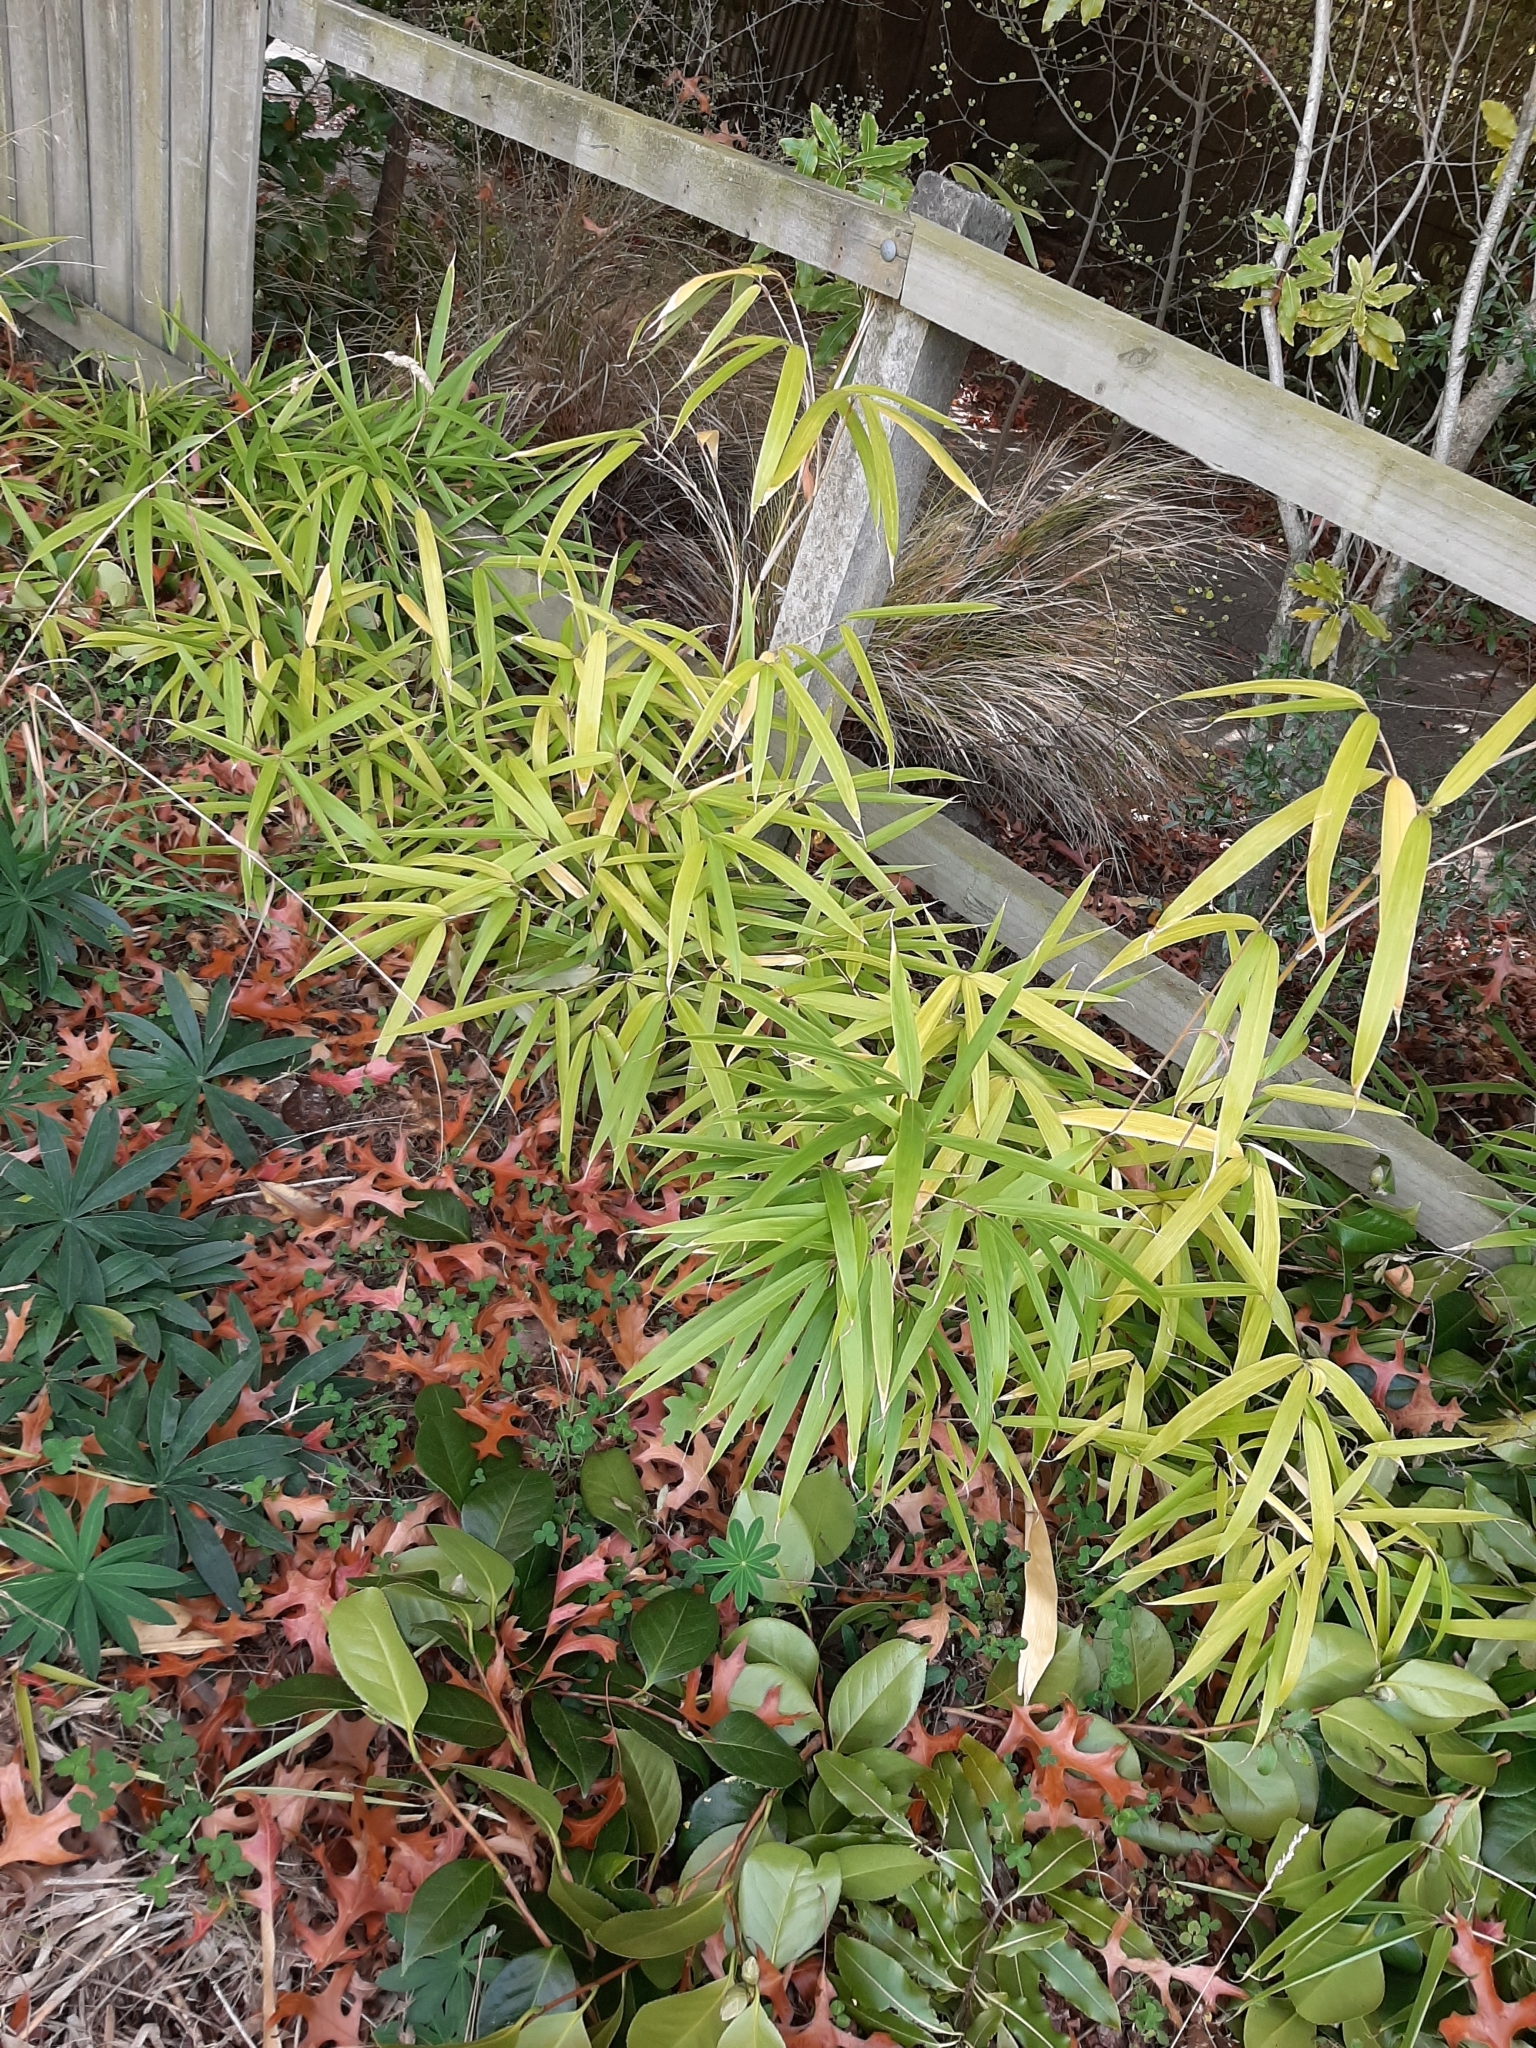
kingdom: Plantae
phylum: Tracheophyta
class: Liliopsida
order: Poales
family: Poaceae
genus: Pseudosasa
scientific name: Pseudosasa japonica
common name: Arrow bamboo
